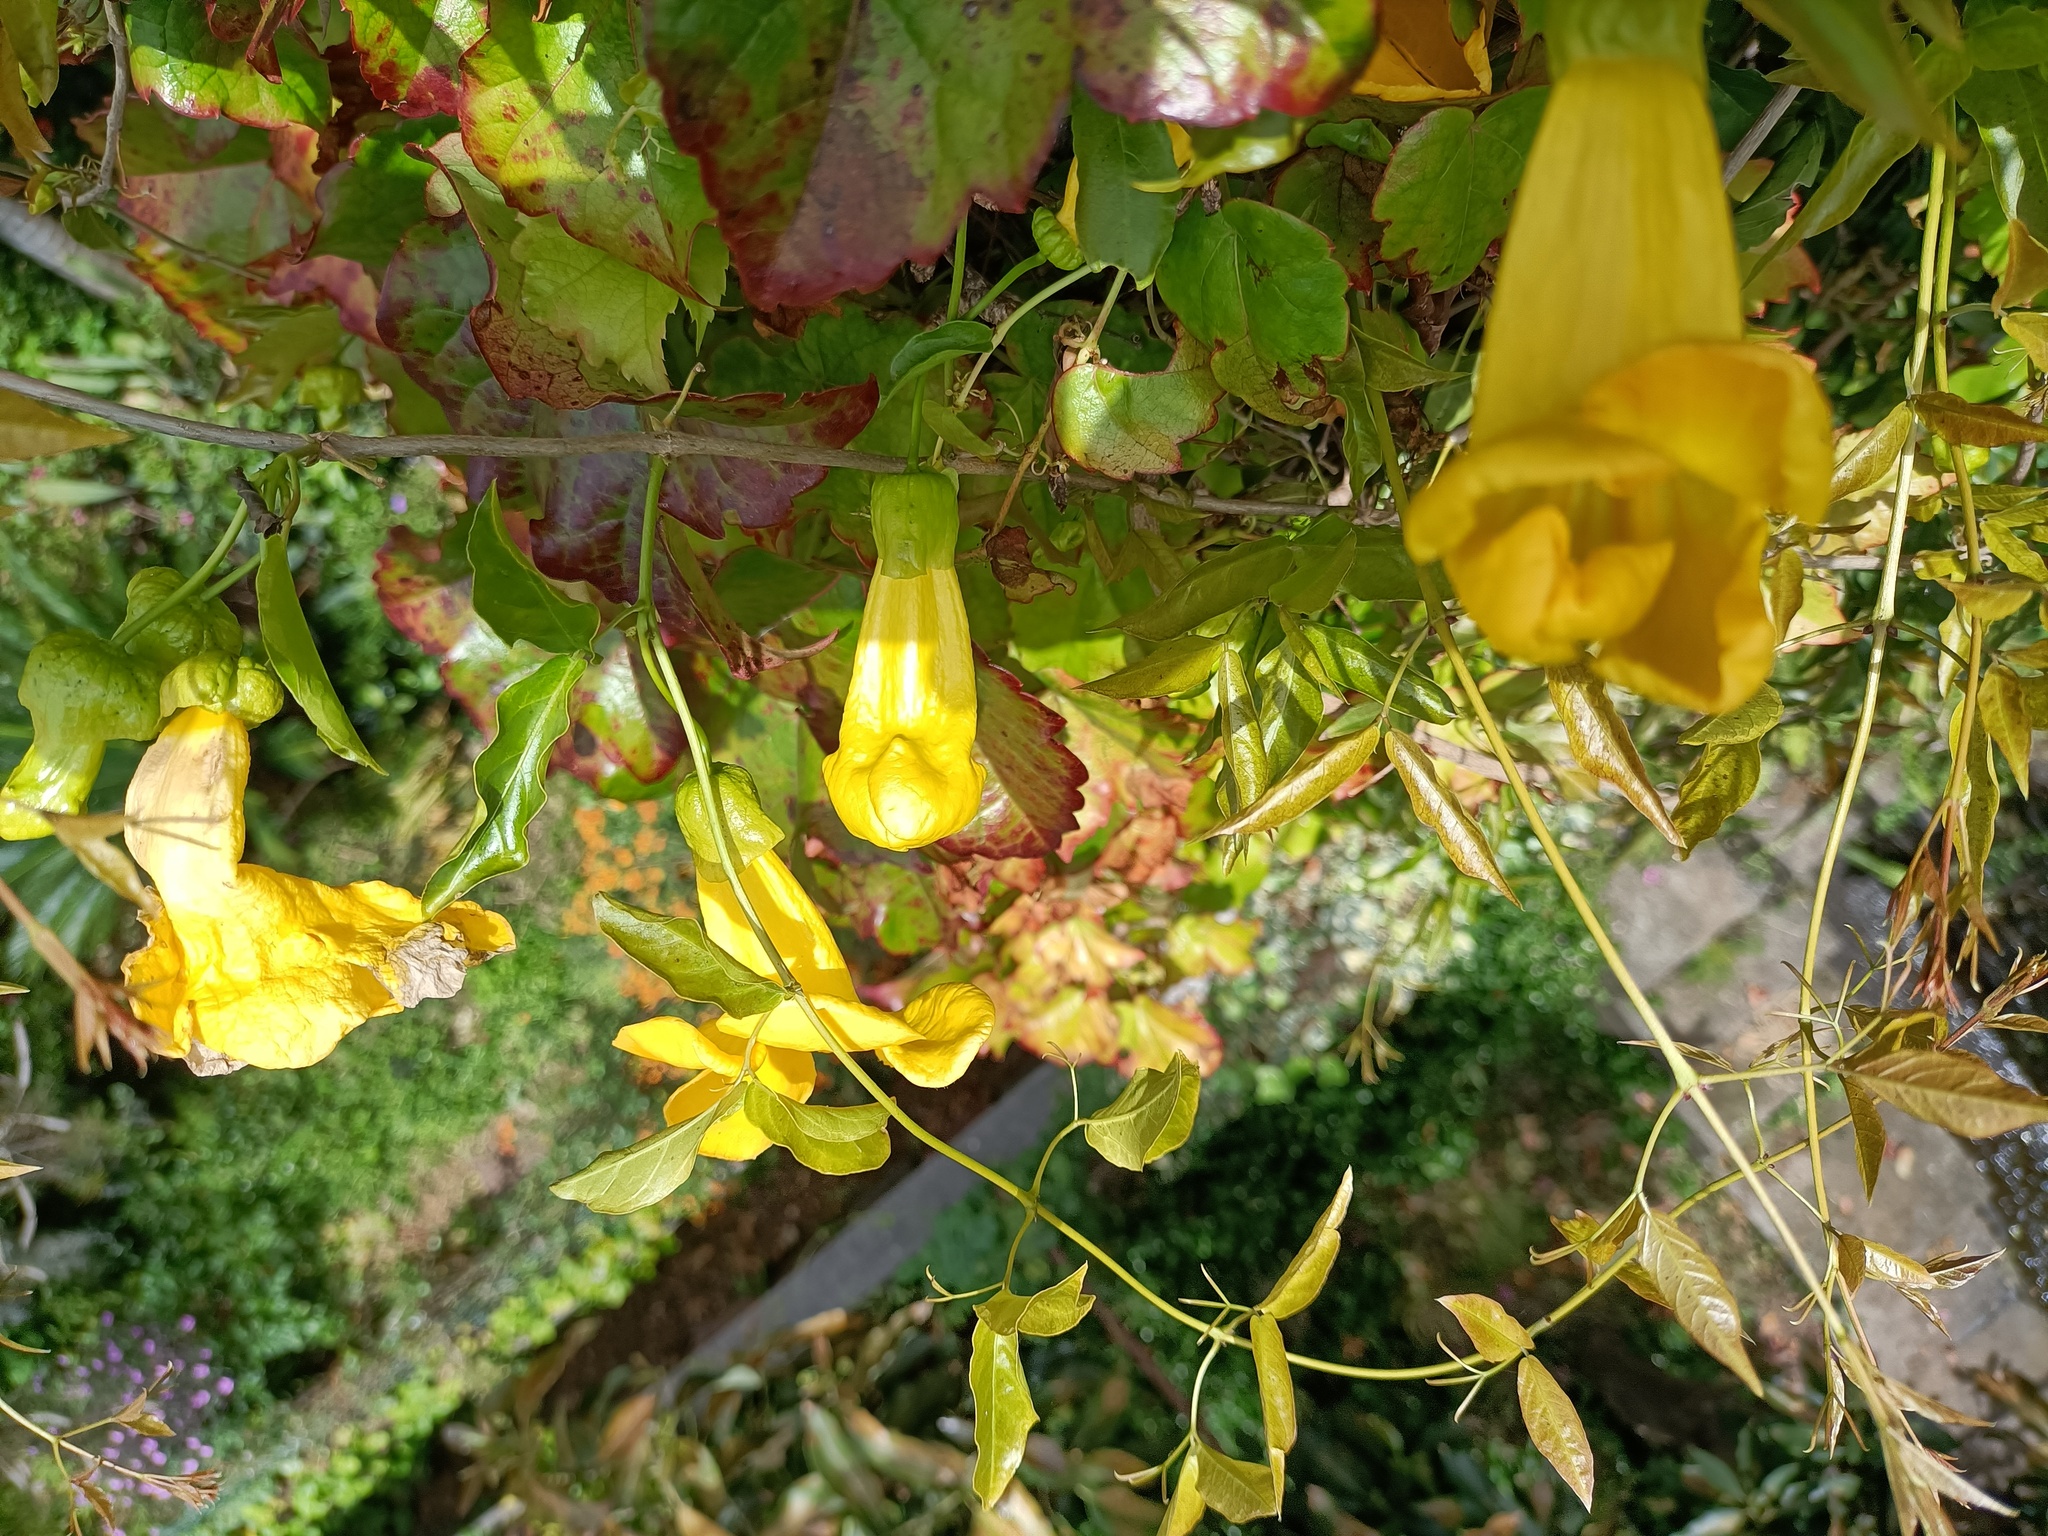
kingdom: Plantae
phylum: Tracheophyta
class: Magnoliopsida
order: Lamiales
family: Bignoniaceae
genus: Dolichandra
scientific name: Dolichandra unguis-cati
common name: Catclaw vine
